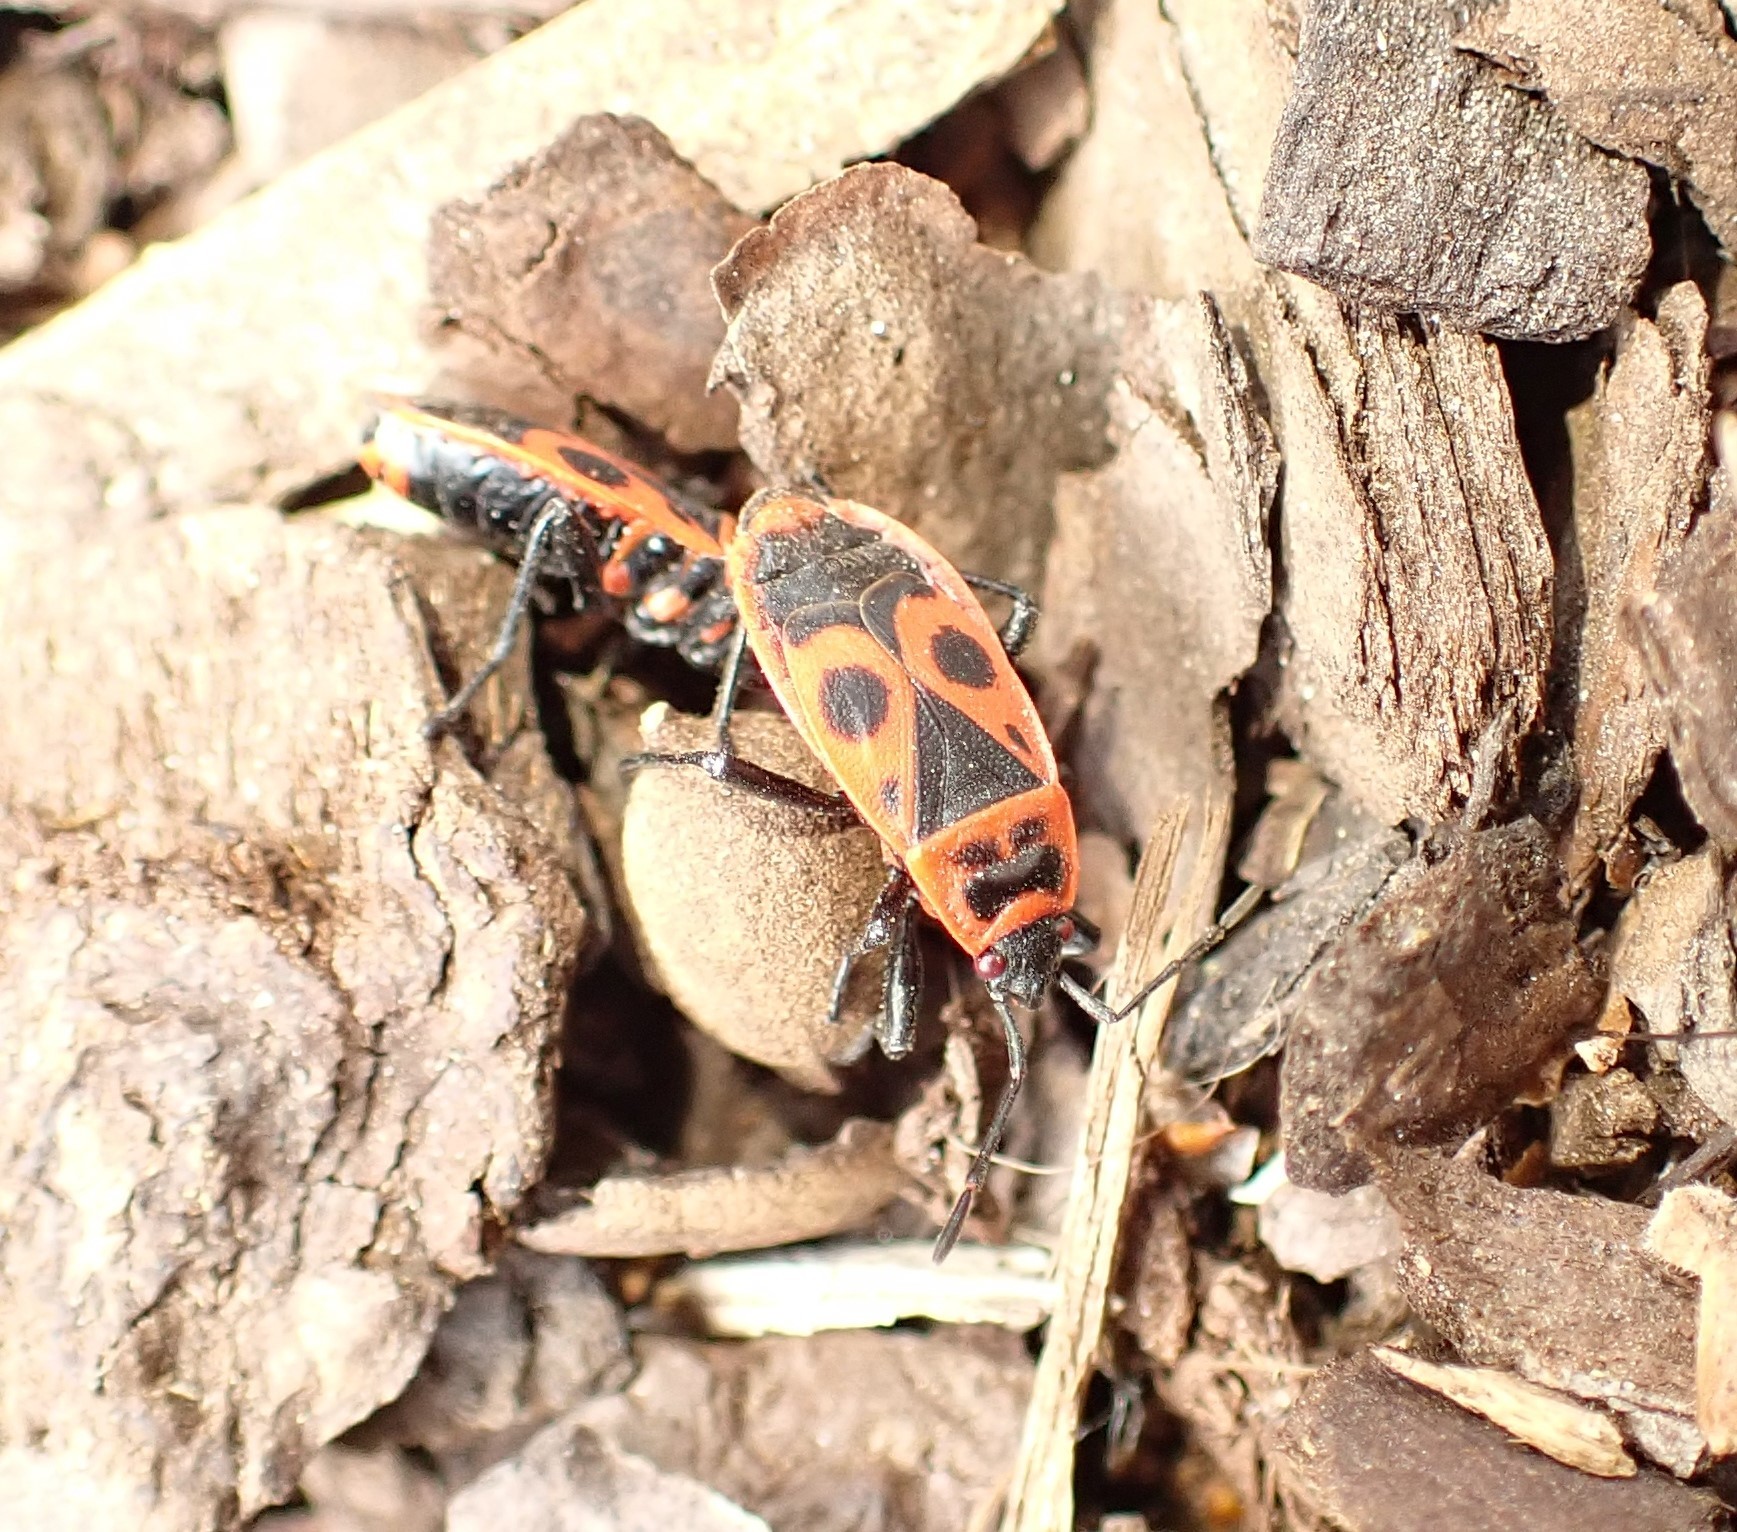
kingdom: Animalia
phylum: Arthropoda
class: Insecta
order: Hemiptera
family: Pyrrhocoridae
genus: Pyrrhocoris
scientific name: Pyrrhocoris apterus
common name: Firebug
